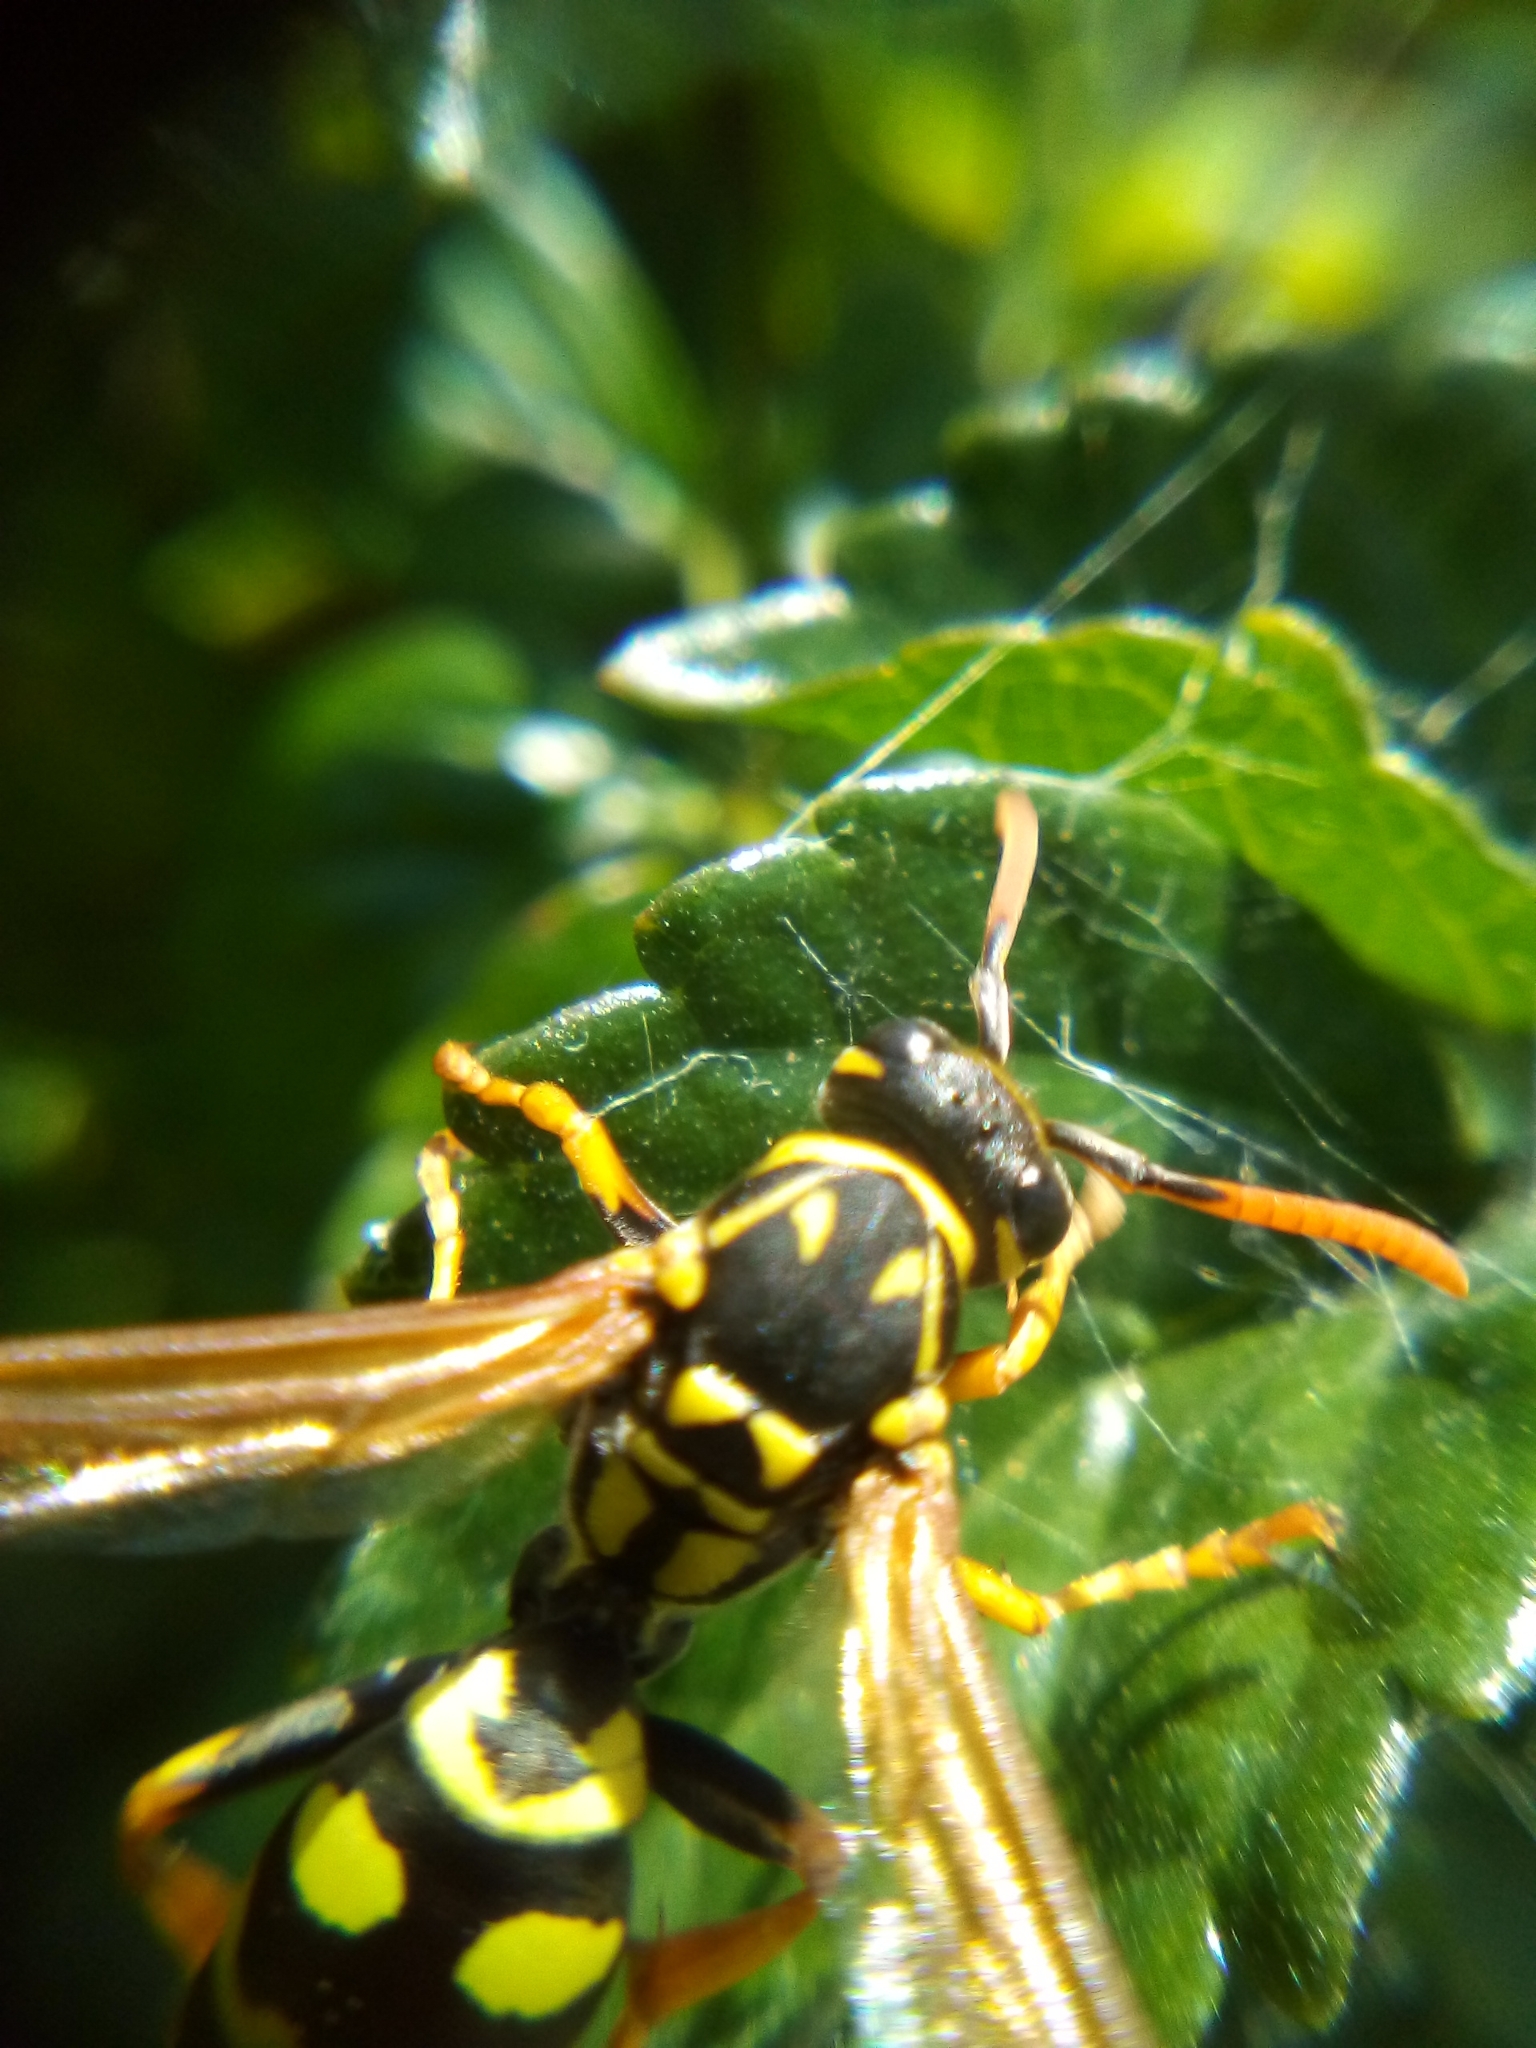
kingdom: Animalia
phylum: Arthropoda
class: Insecta
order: Hymenoptera
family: Eumenidae
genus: Polistes
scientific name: Polistes dominula
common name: Paper wasp
